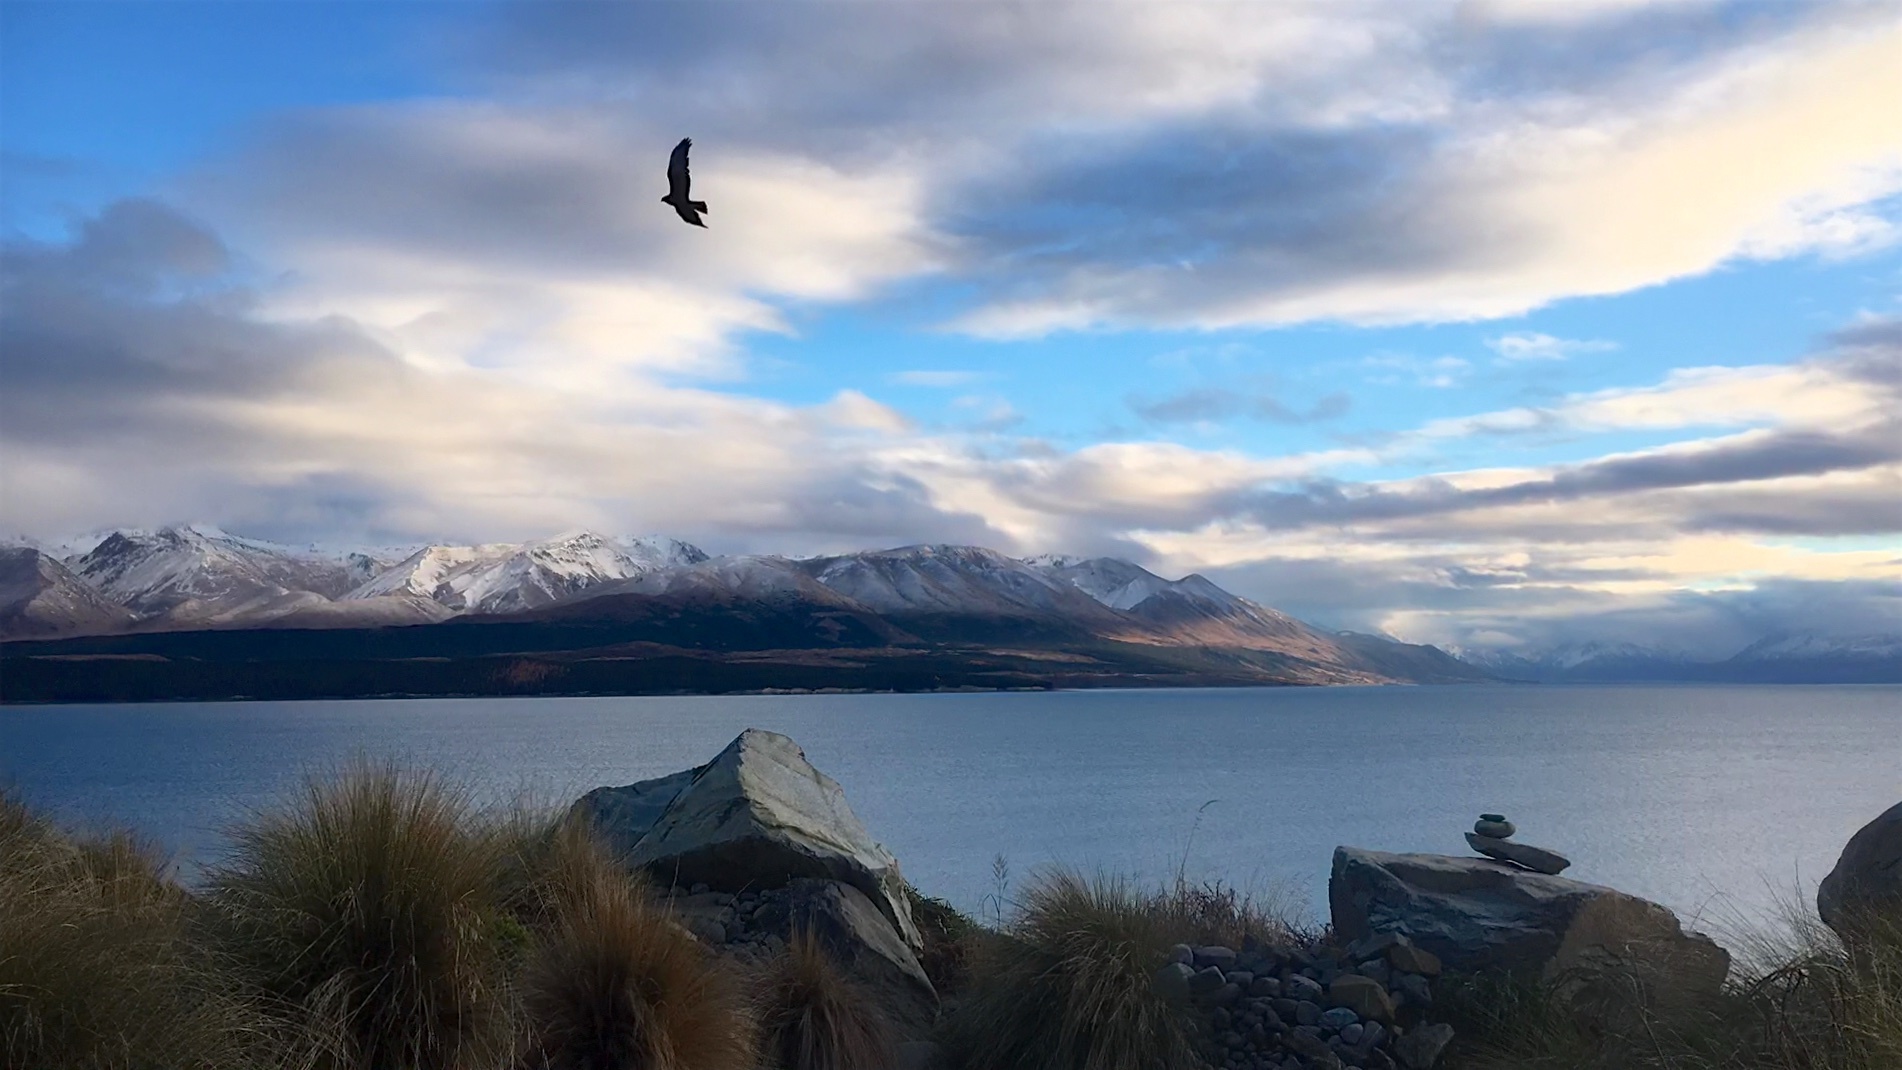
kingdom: Animalia
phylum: Chordata
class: Aves
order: Accipitriformes
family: Accipitridae
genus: Circus
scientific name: Circus approximans
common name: Swamp harrier
